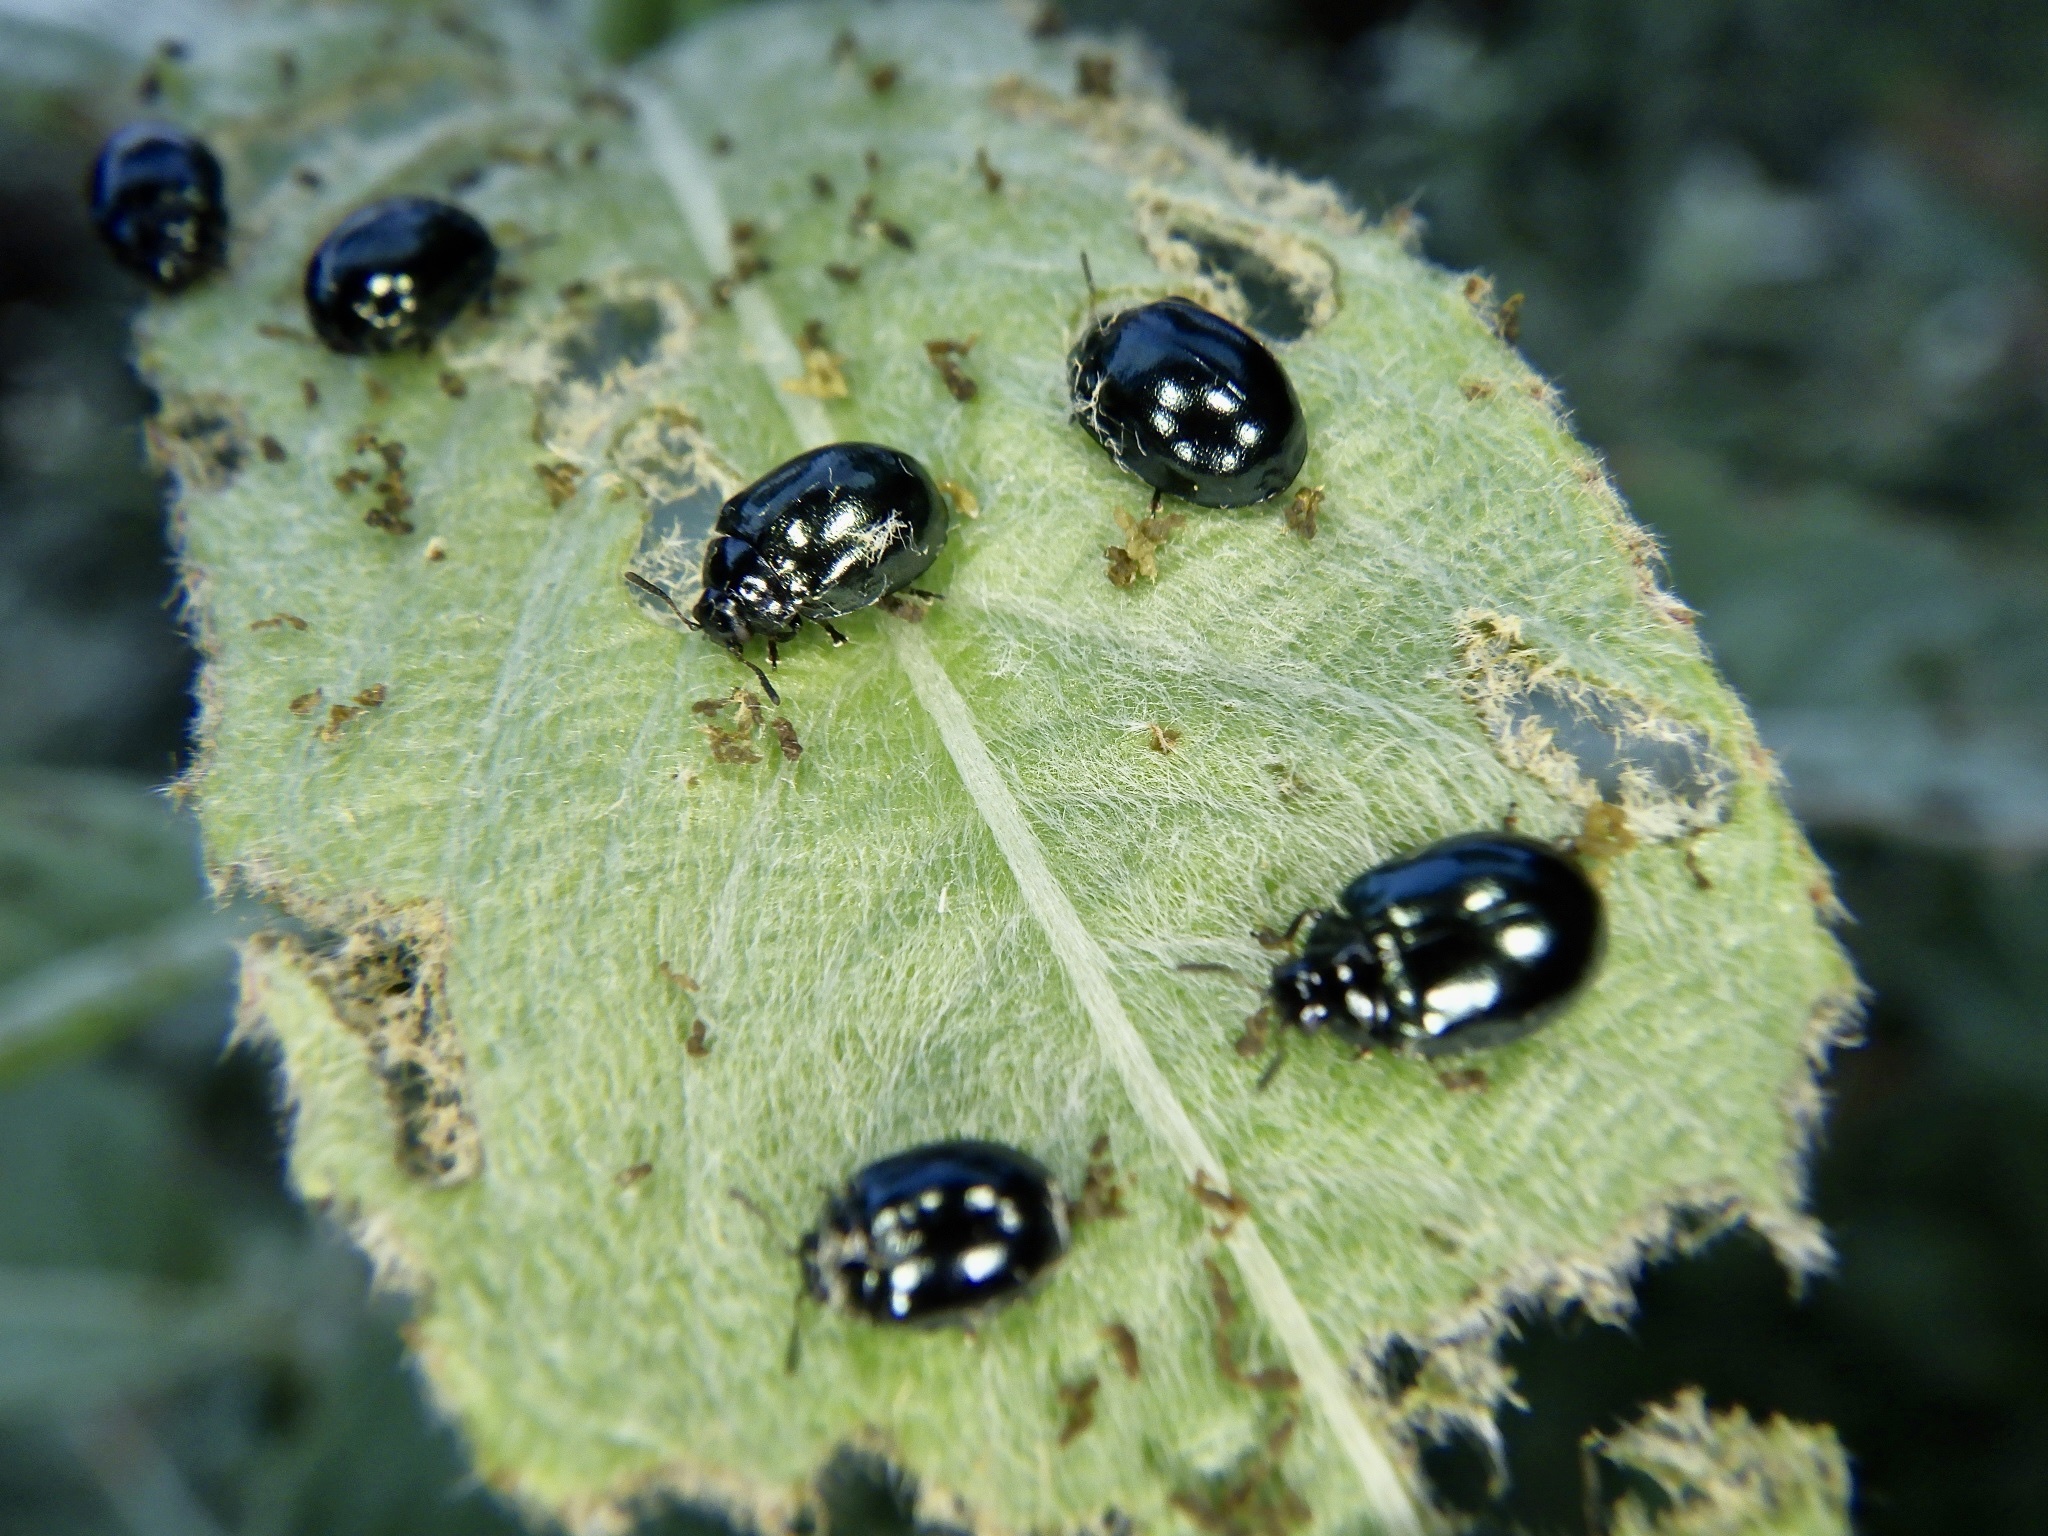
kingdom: Animalia
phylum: Arthropoda
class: Insecta
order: Coleoptera
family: Chrysomelidae
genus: Plagiodera
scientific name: Plagiodera versicolora
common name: Imported willow leaf beetle
